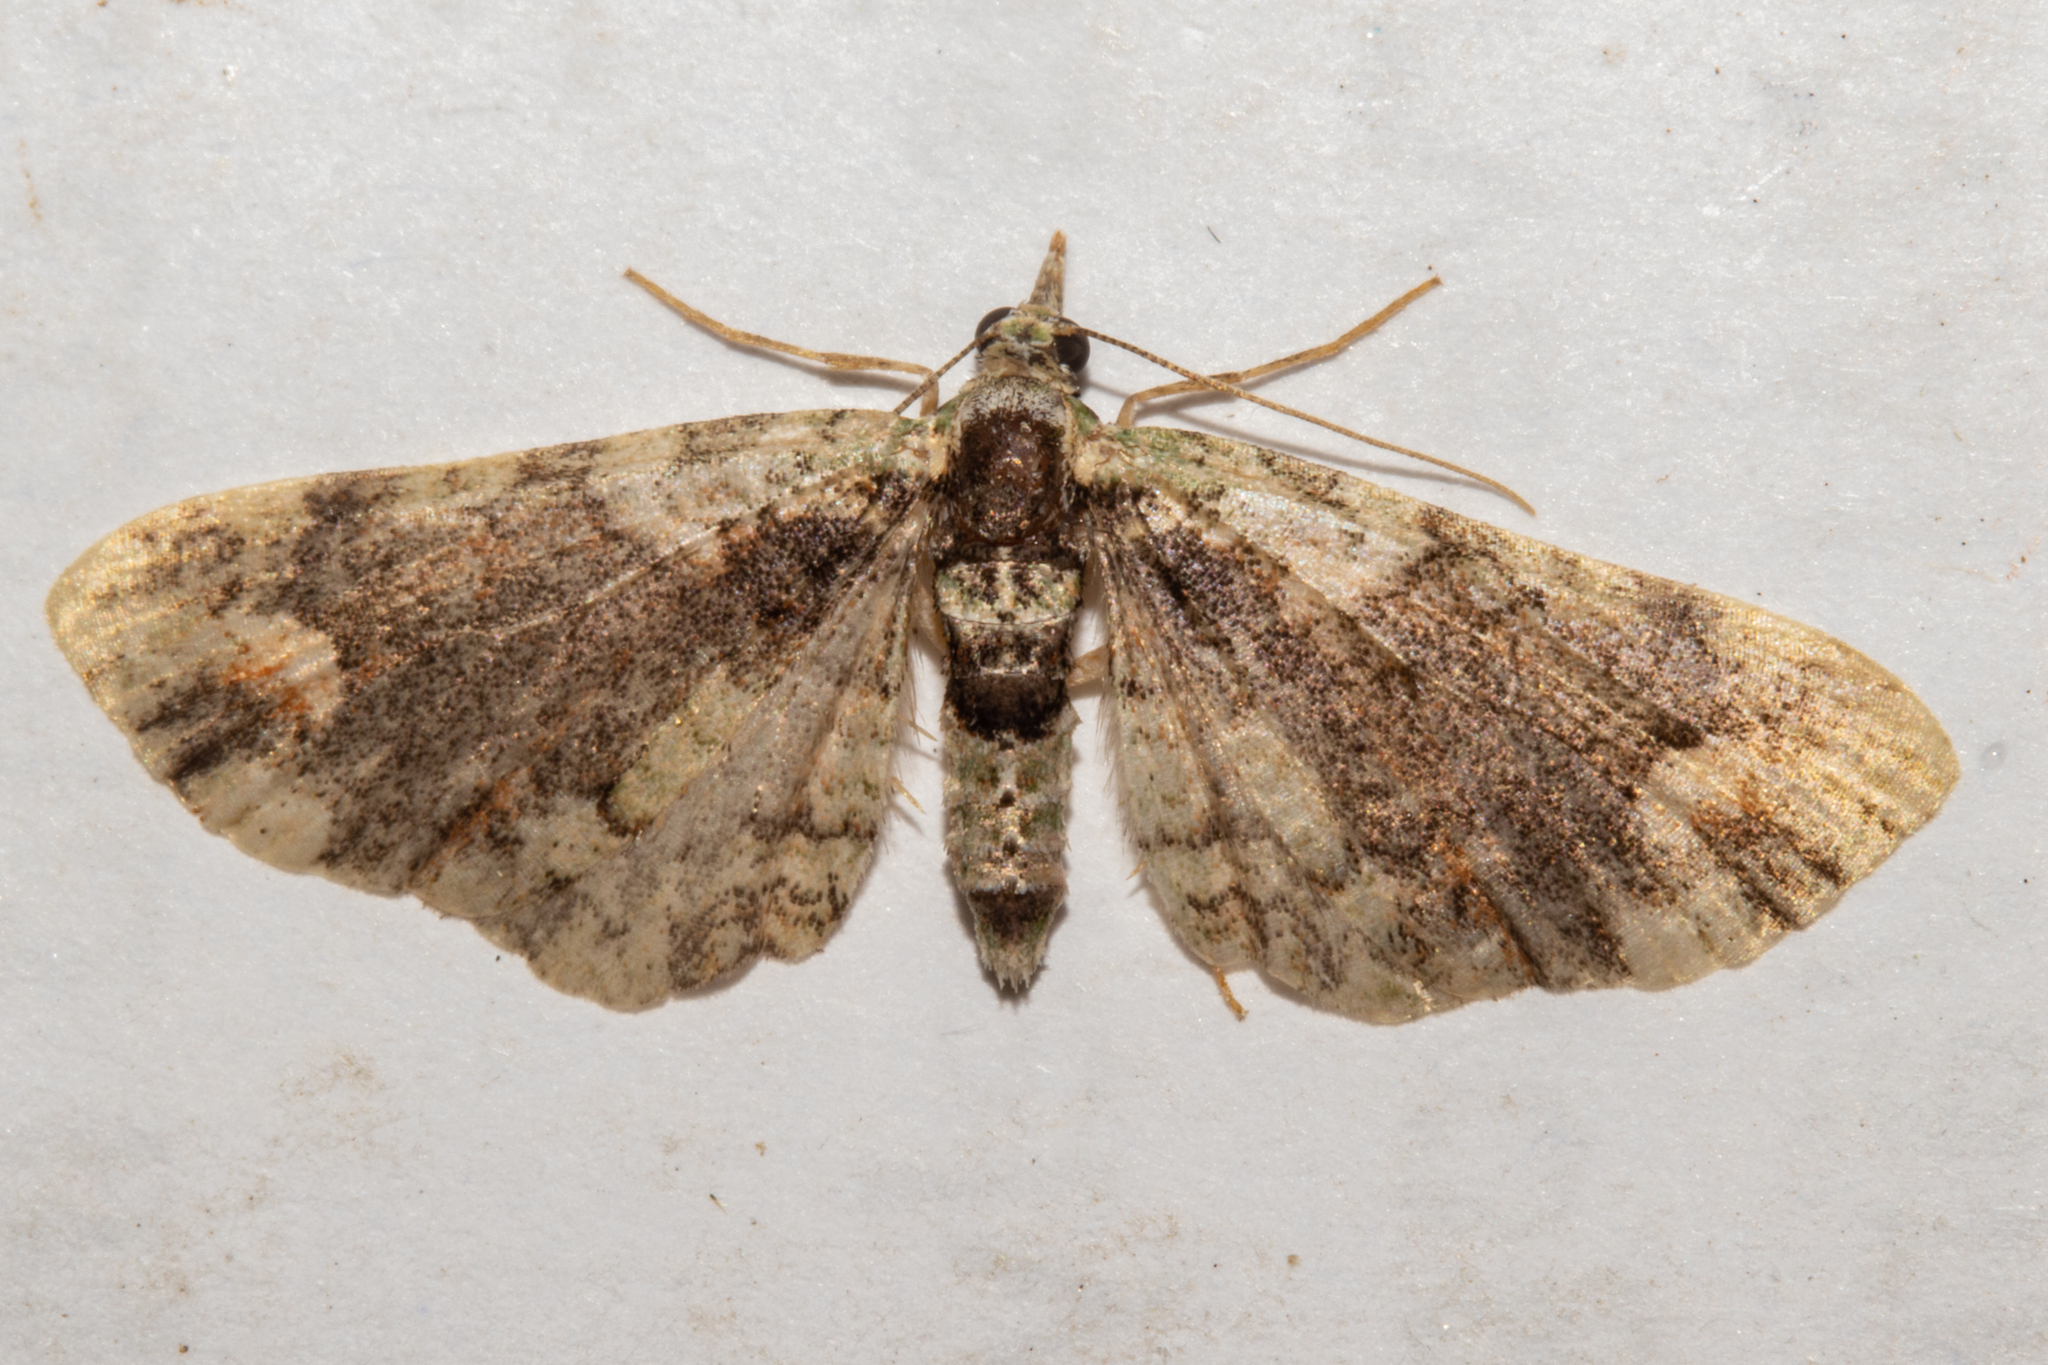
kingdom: Animalia
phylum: Arthropoda
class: Insecta
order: Lepidoptera
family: Geometridae
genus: Idaea
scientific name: Idaea mutanda
